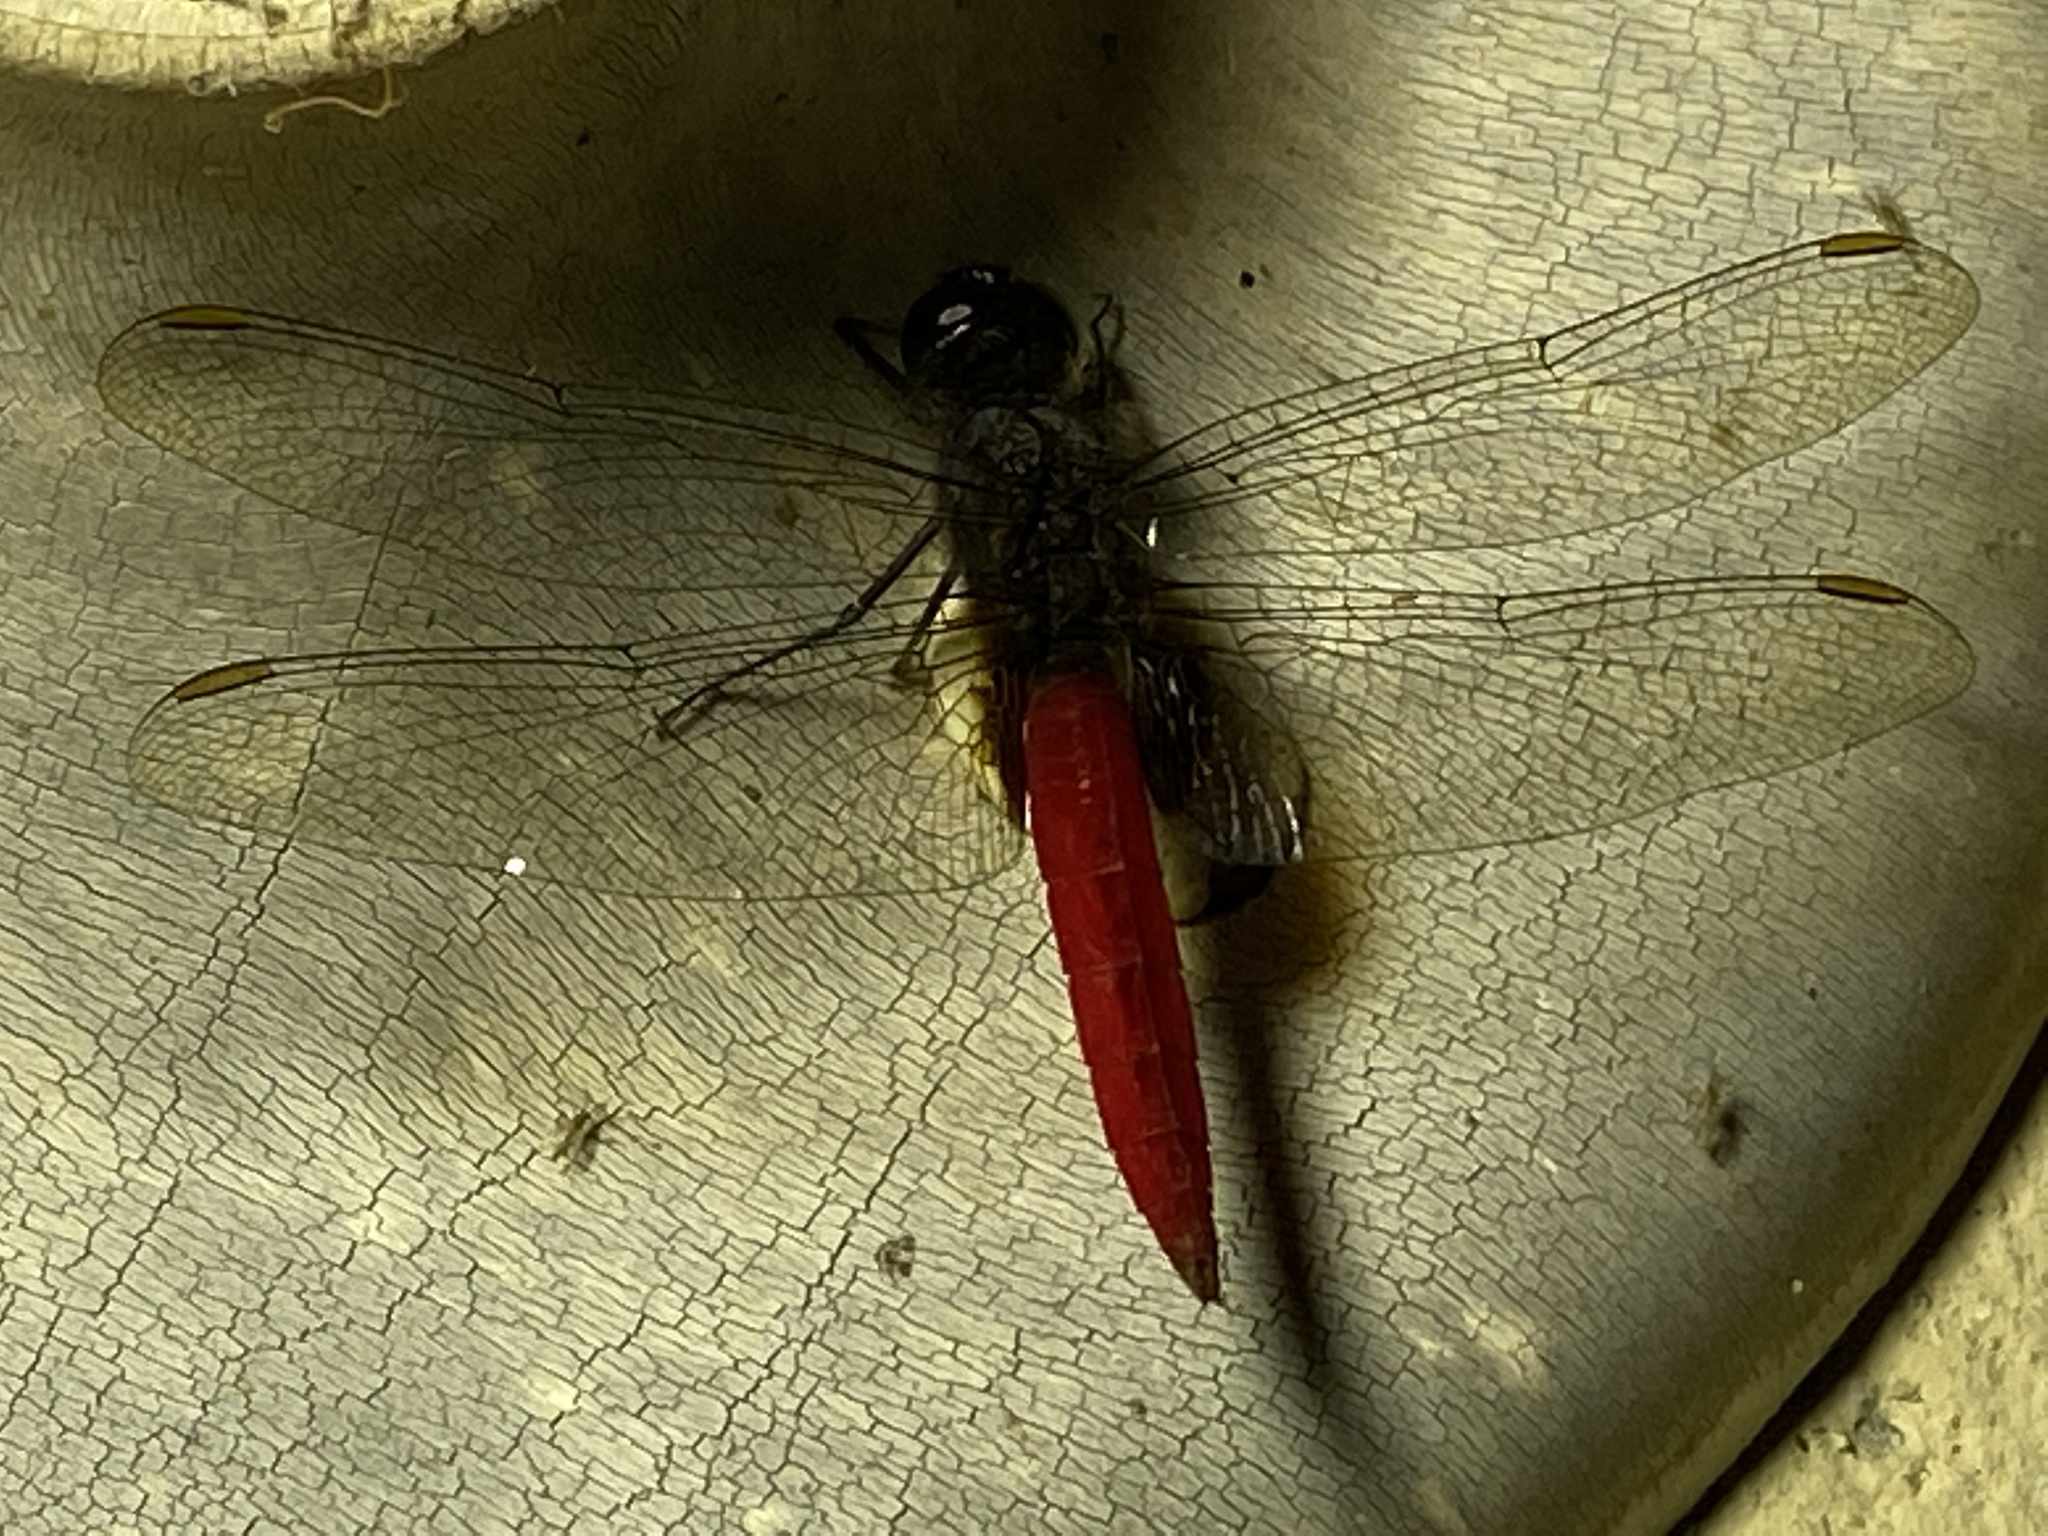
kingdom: Animalia
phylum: Arthropoda
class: Insecta
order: Odonata
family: Libellulidae
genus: Planiplax
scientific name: Planiplax phoenicura
